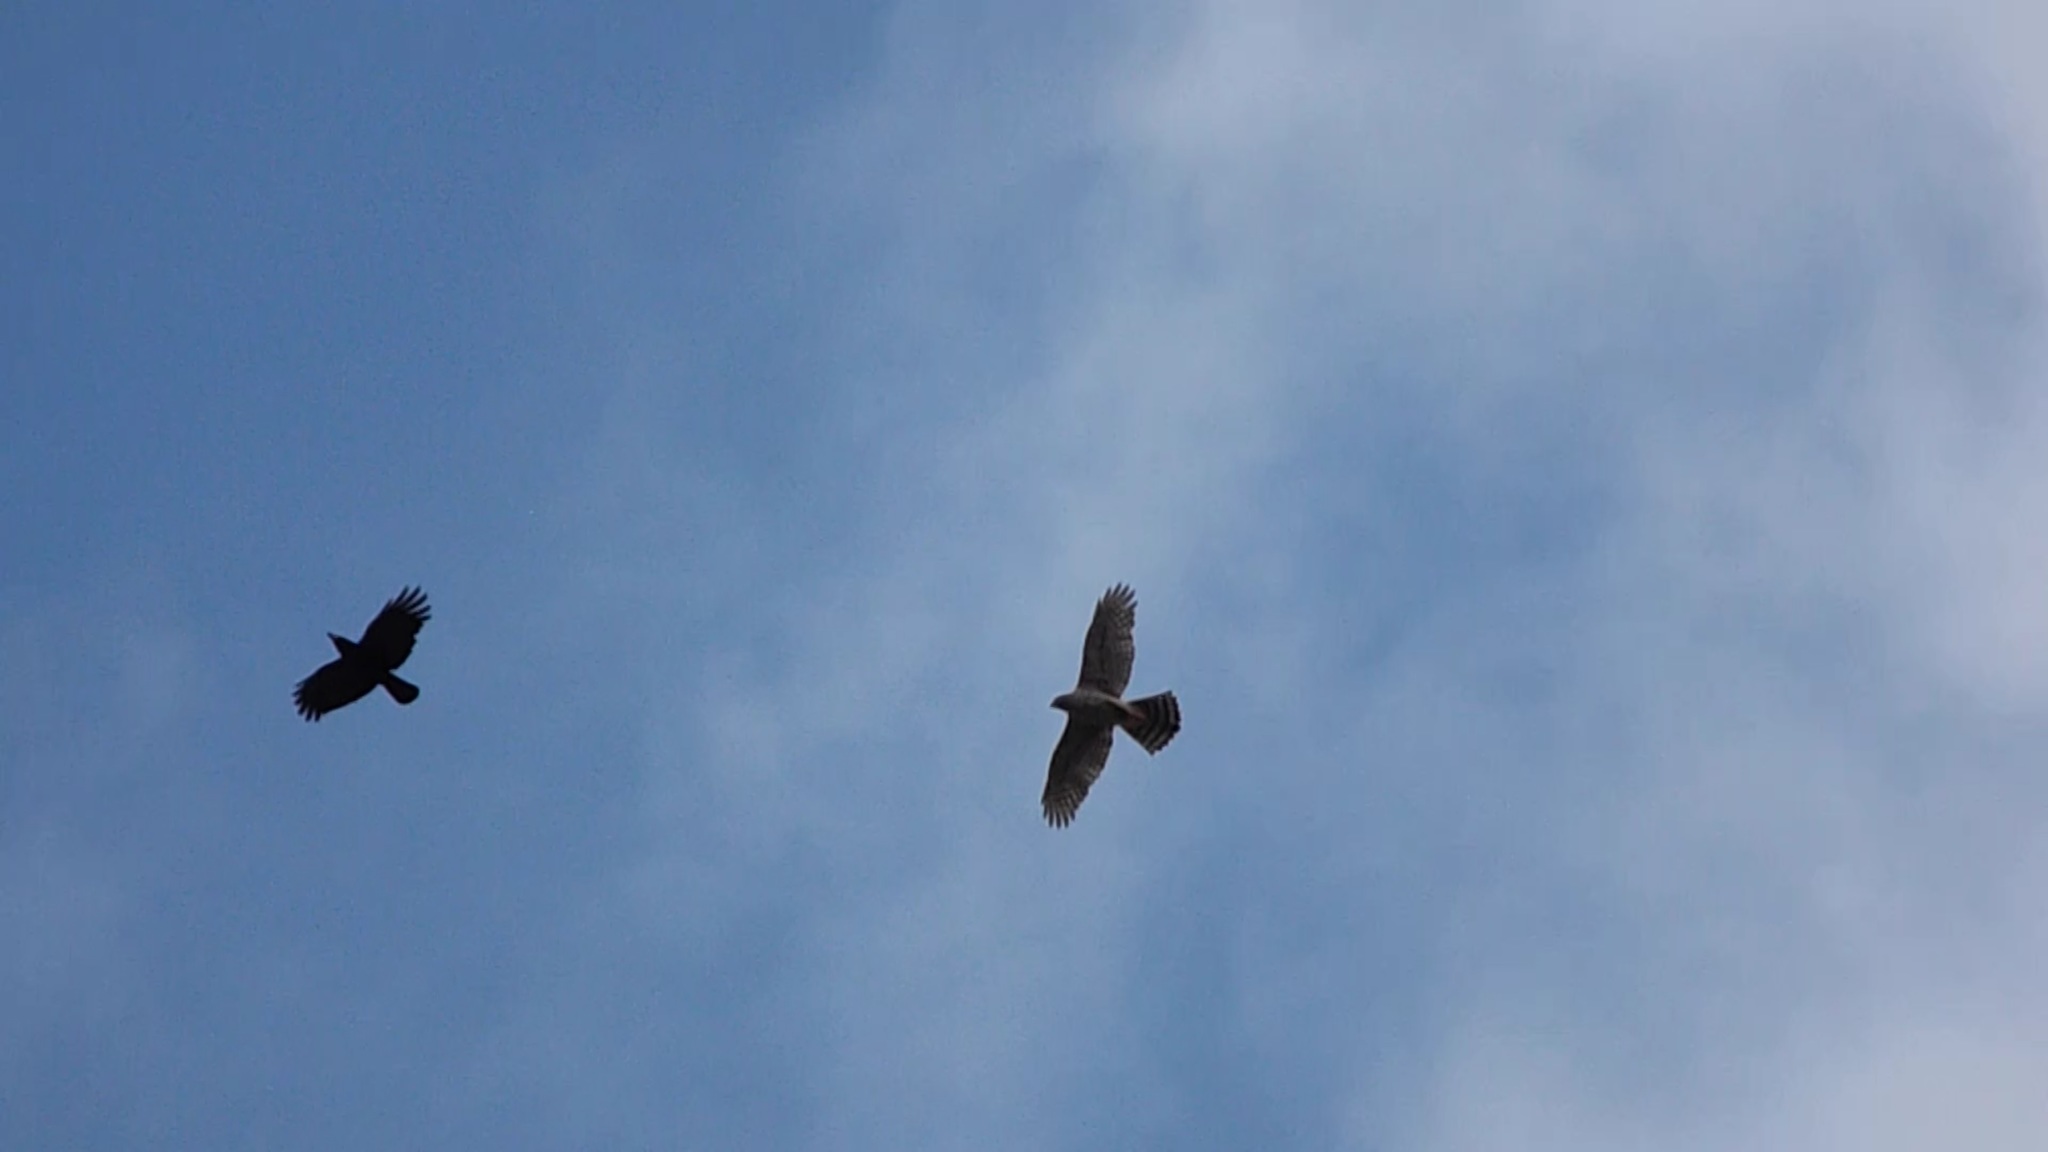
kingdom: Animalia
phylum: Chordata
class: Aves
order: Passeriformes
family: Corvidae
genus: Corvus
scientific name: Corvus corone
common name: Carrion crow
